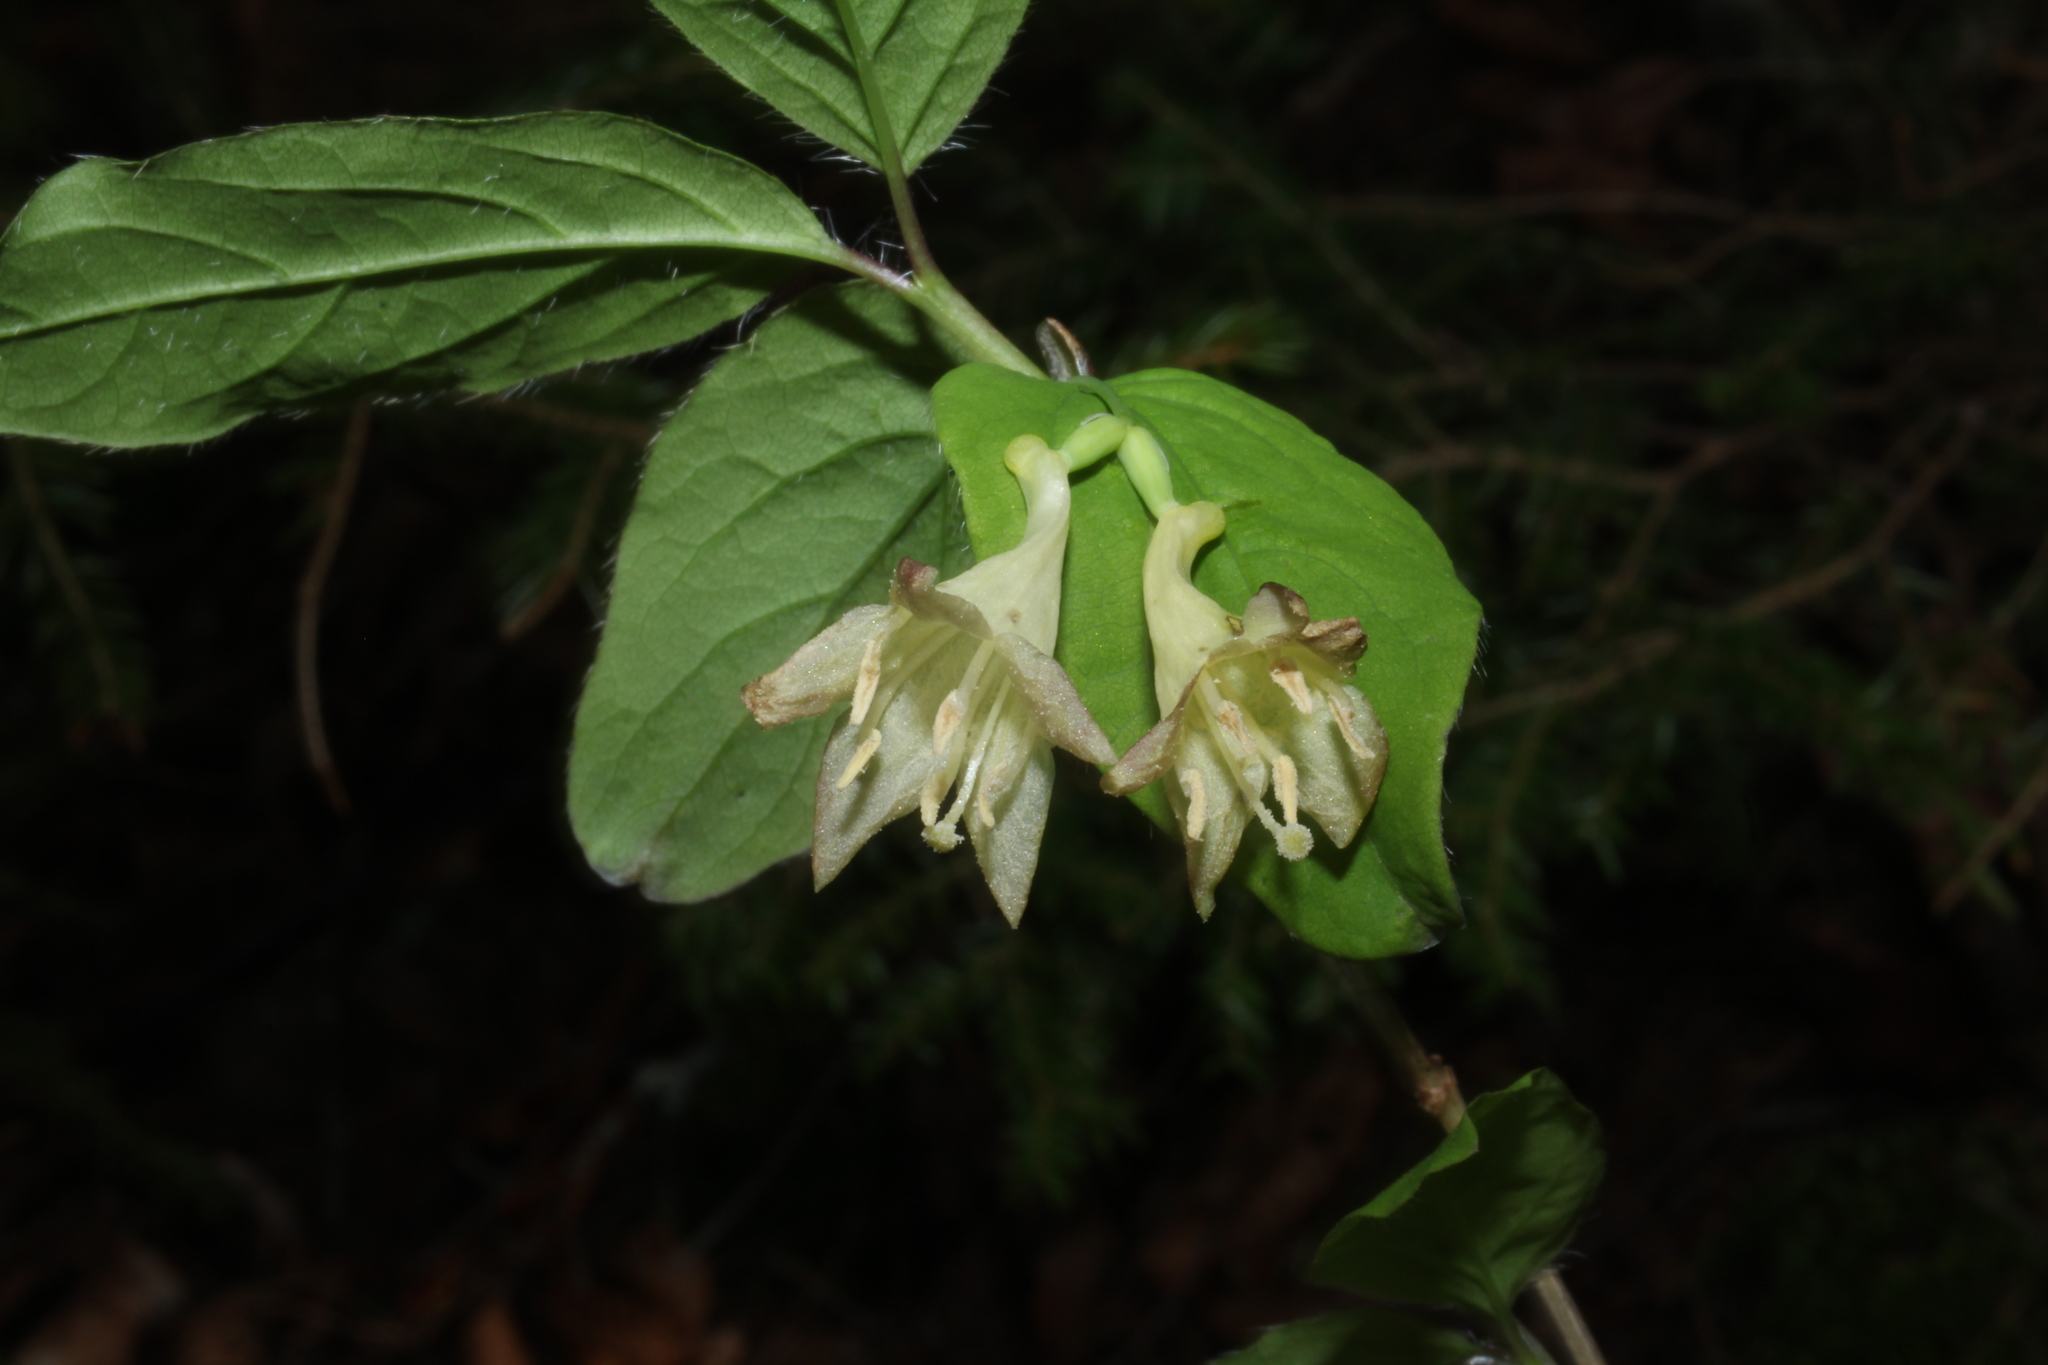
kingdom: Plantae
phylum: Tracheophyta
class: Magnoliopsida
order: Dipsacales
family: Caprifoliaceae
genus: Lonicera
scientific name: Lonicera canadensis
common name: American fly-honeysuckle
